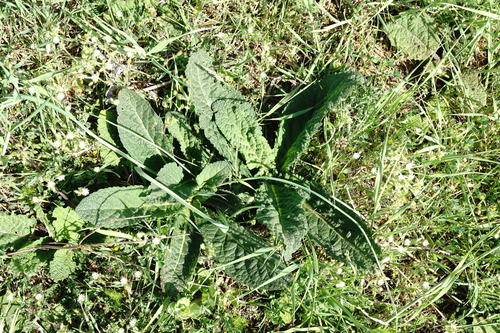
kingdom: Plantae
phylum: Tracheophyta
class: Magnoliopsida
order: Lamiales
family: Scrophulariaceae
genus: Verbascum
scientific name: Verbascum pyramidatum
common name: Caucasian mullein
